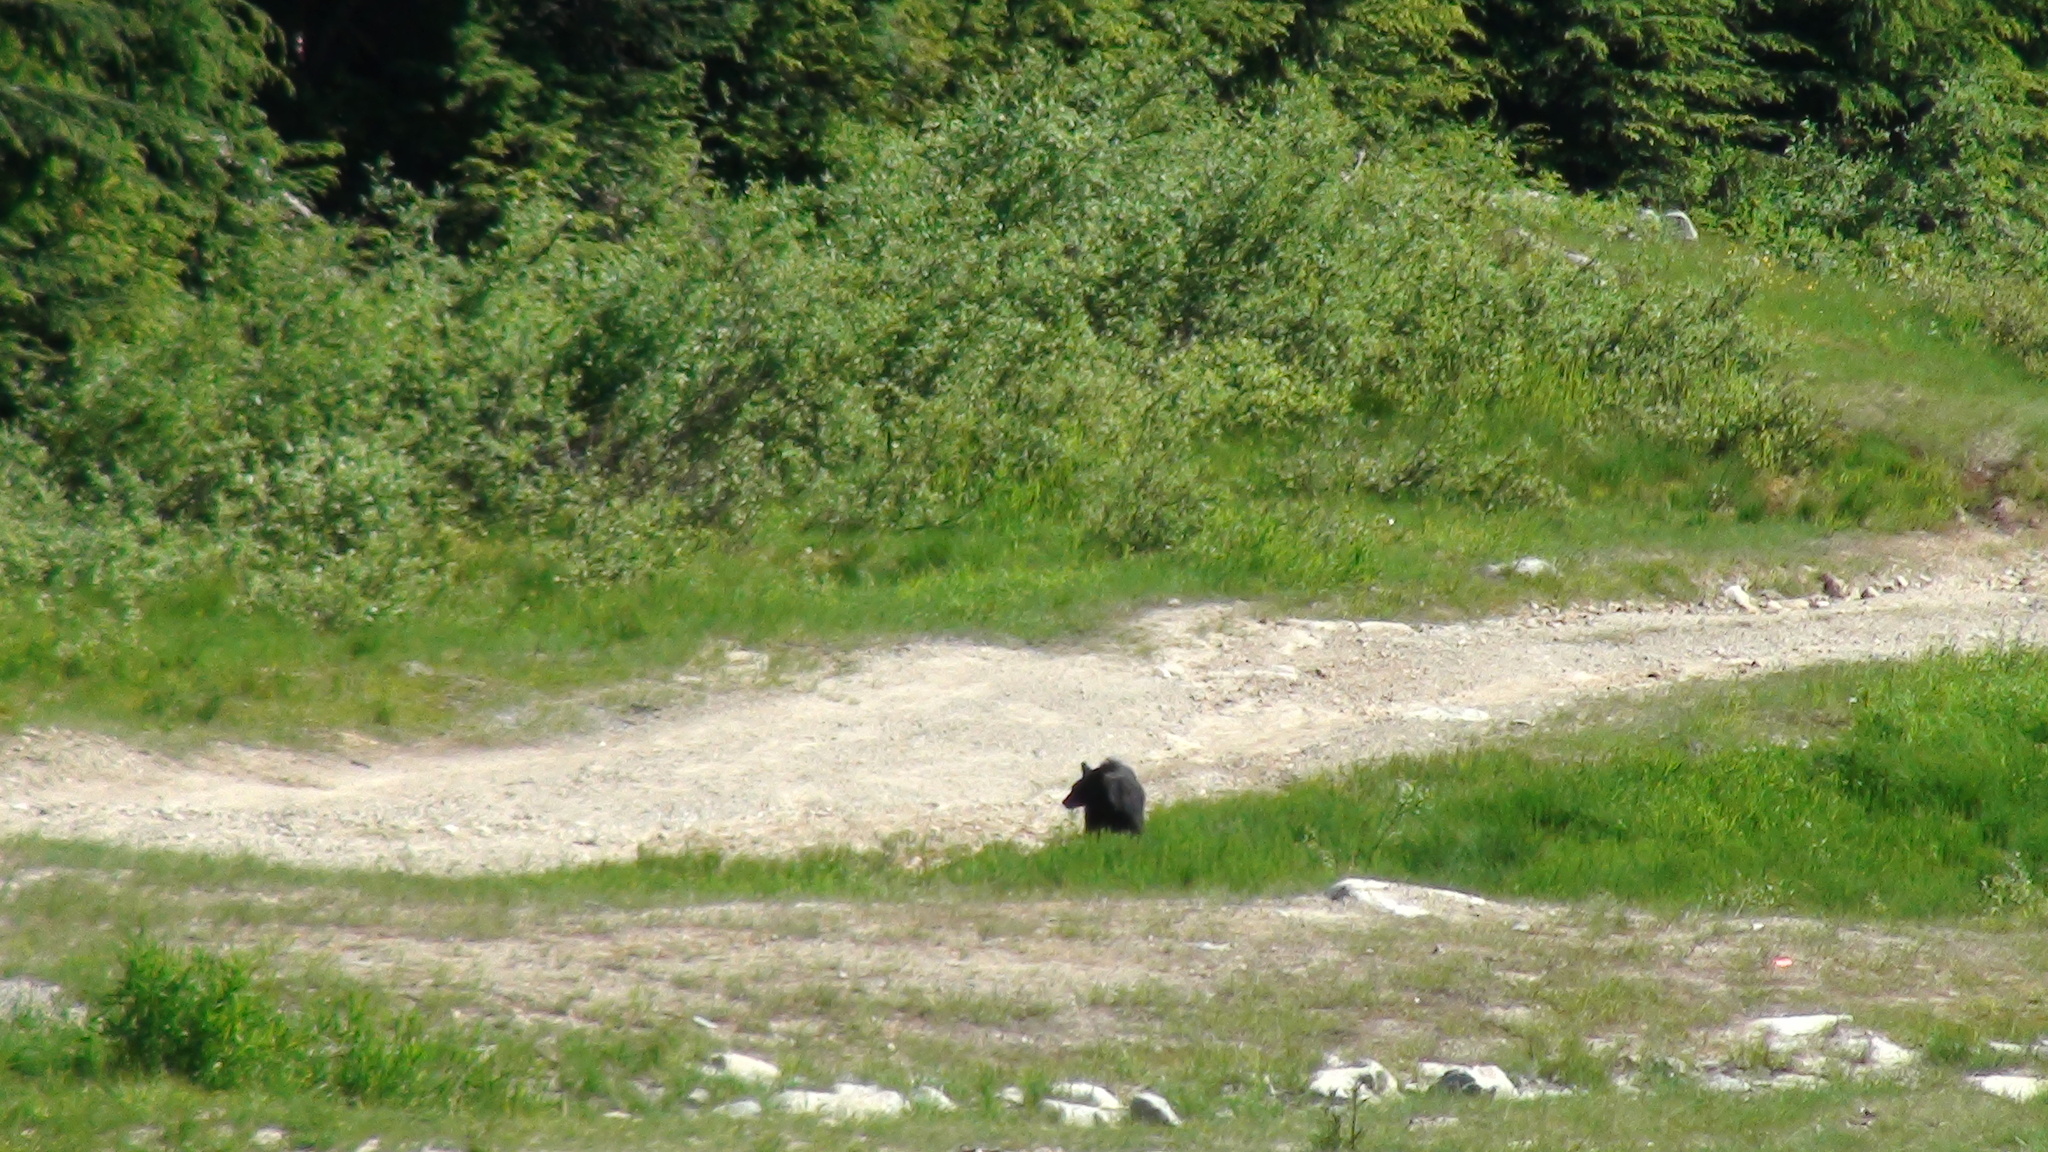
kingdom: Animalia
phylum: Chordata
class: Mammalia
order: Carnivora
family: Ursidae
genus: Ursus
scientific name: Ursus americanus
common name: American black bear
